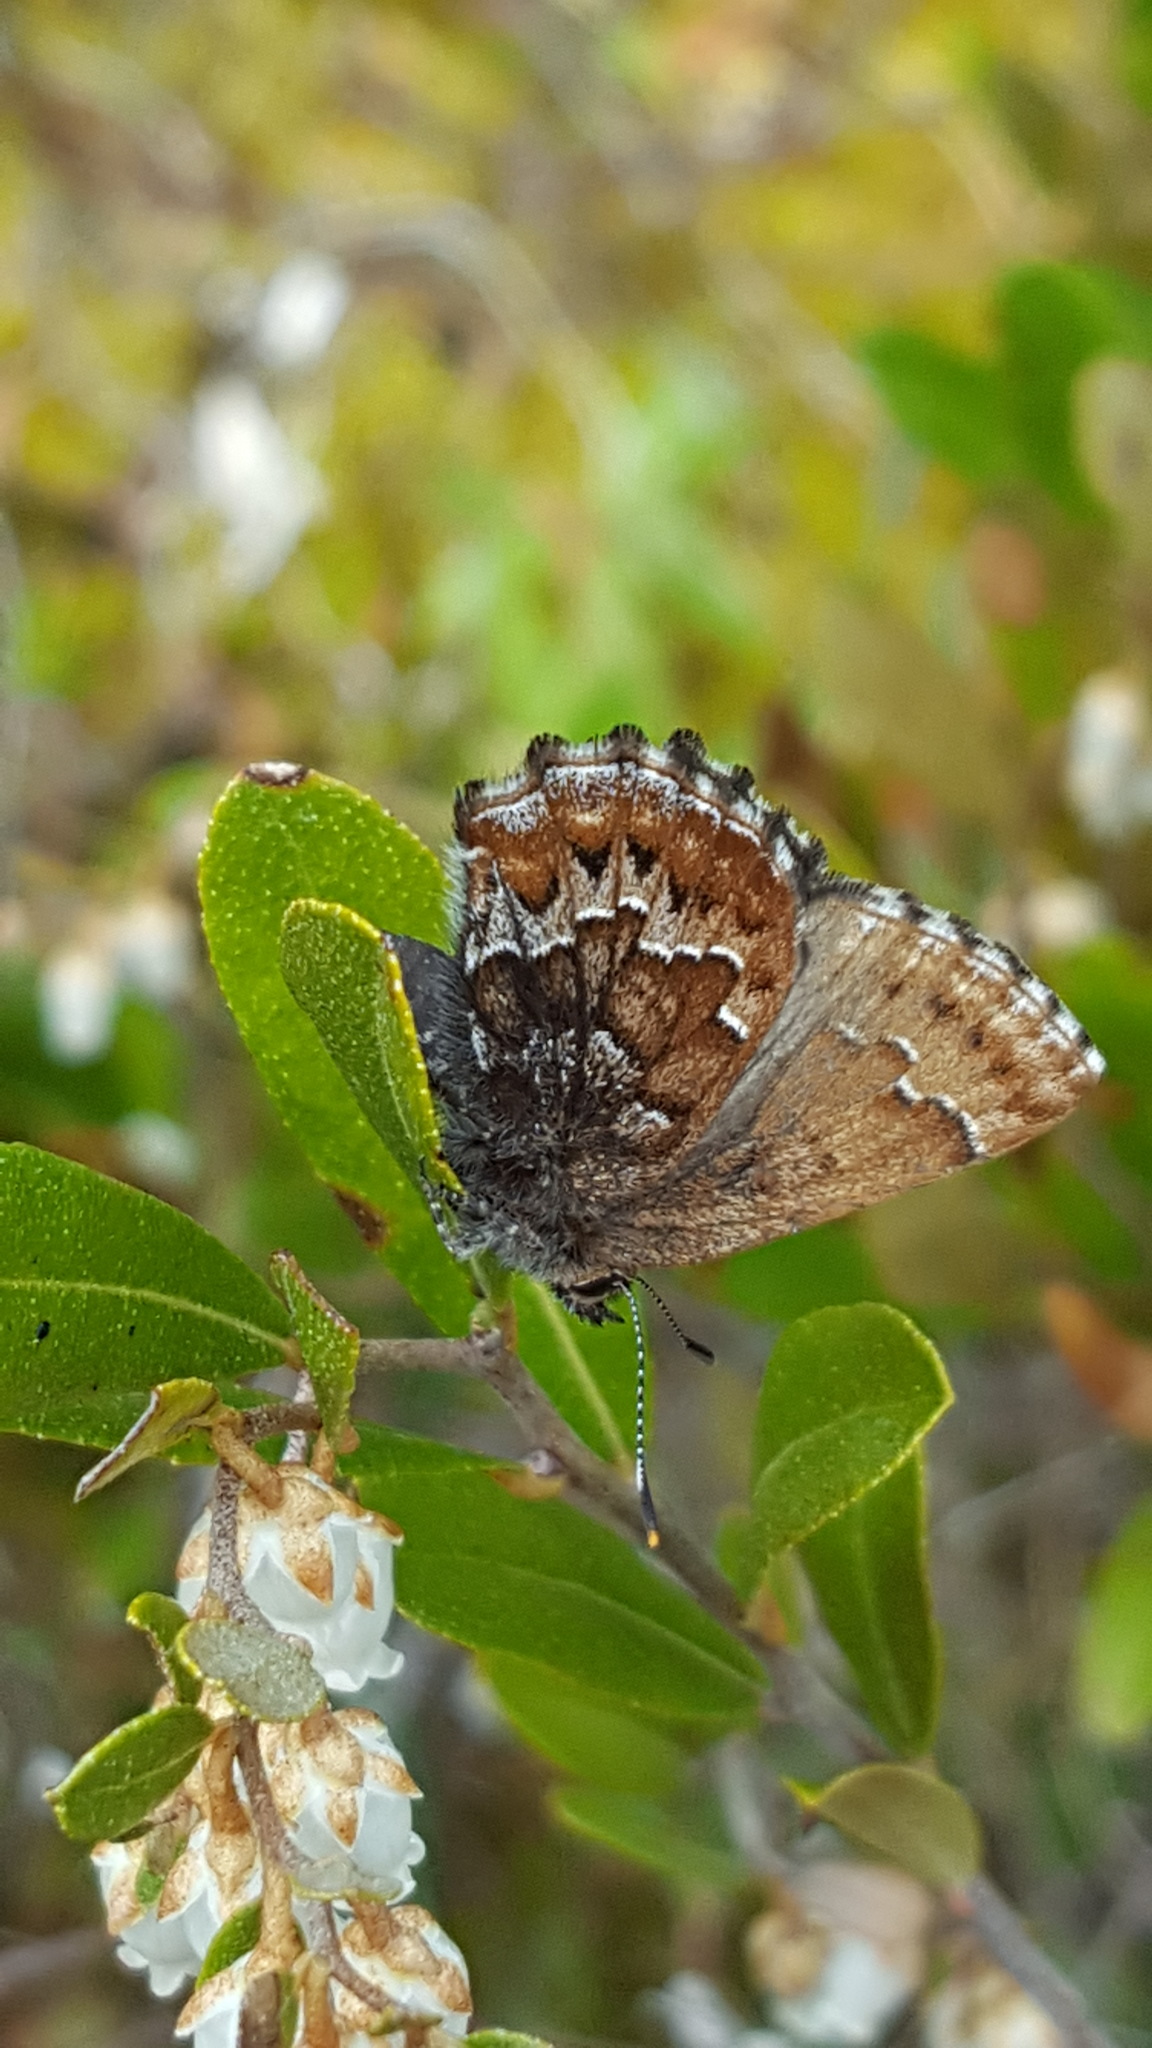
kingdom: Animalia
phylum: Arthropoda
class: Insecta
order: Lepidoptera
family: Lycaenidae
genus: Incisalia
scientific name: Incisalia eryphon
